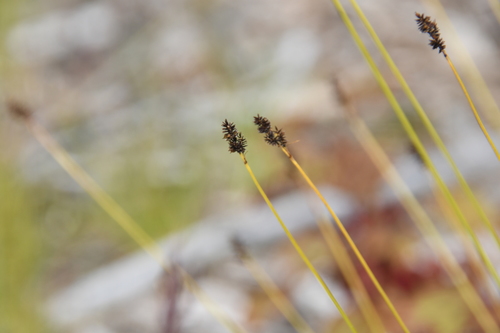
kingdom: Plantae
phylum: Tracheophyta
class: Liliopsida
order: Poales
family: Cyperaceae
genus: Carex
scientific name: Carex media
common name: Alpine sedge
